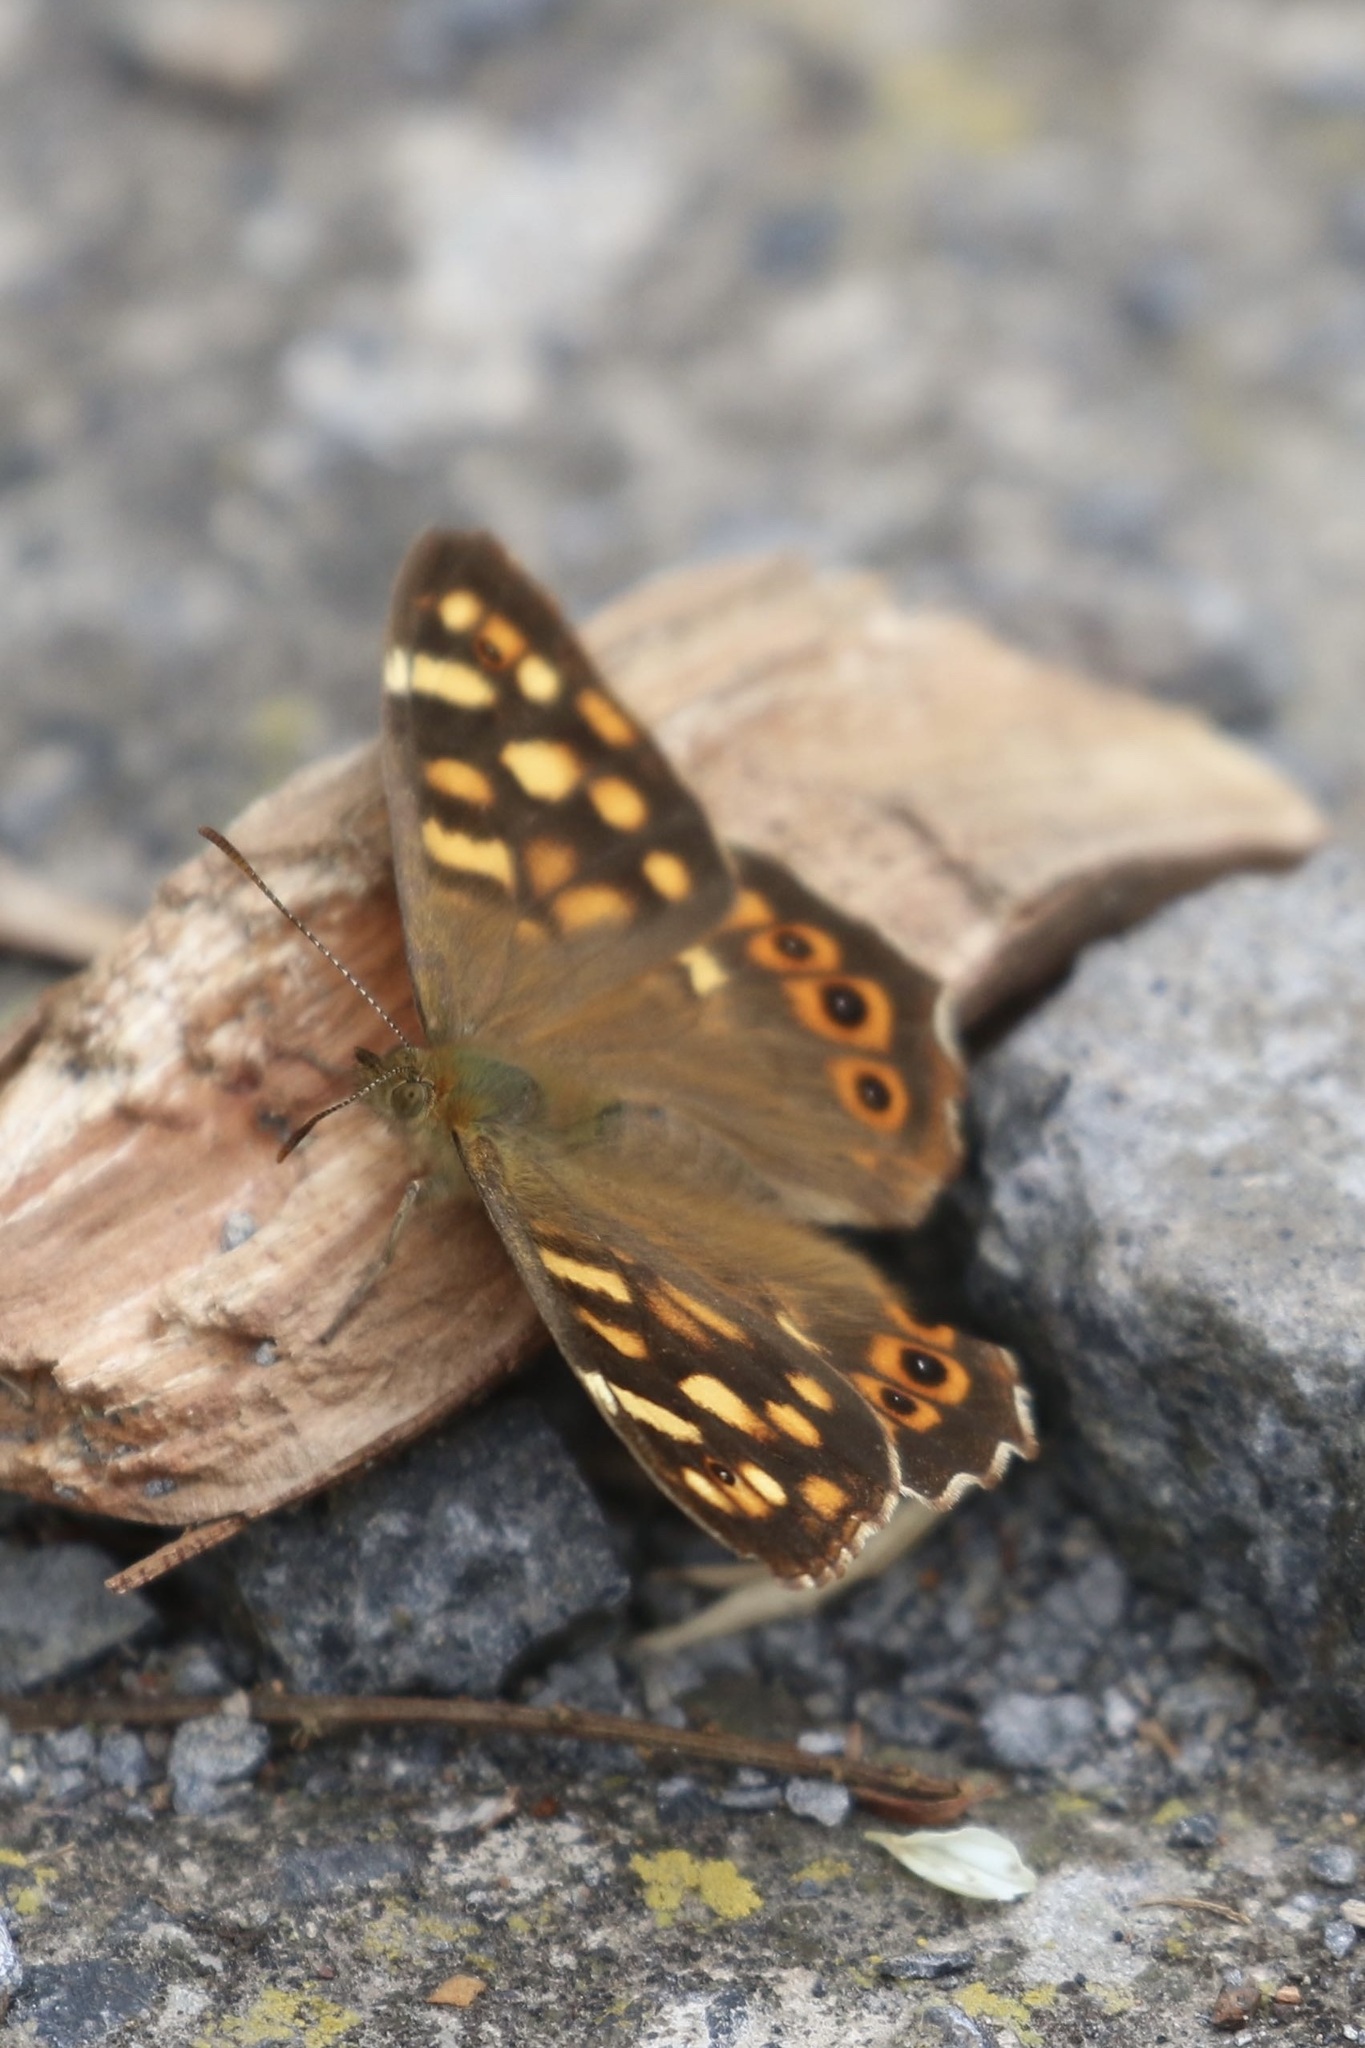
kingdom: Animalia
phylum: Arthropoda
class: Insecta
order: Lepidoptera
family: Nymphalidae
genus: Pararge
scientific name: Pararge aegeria
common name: Speckled wood
